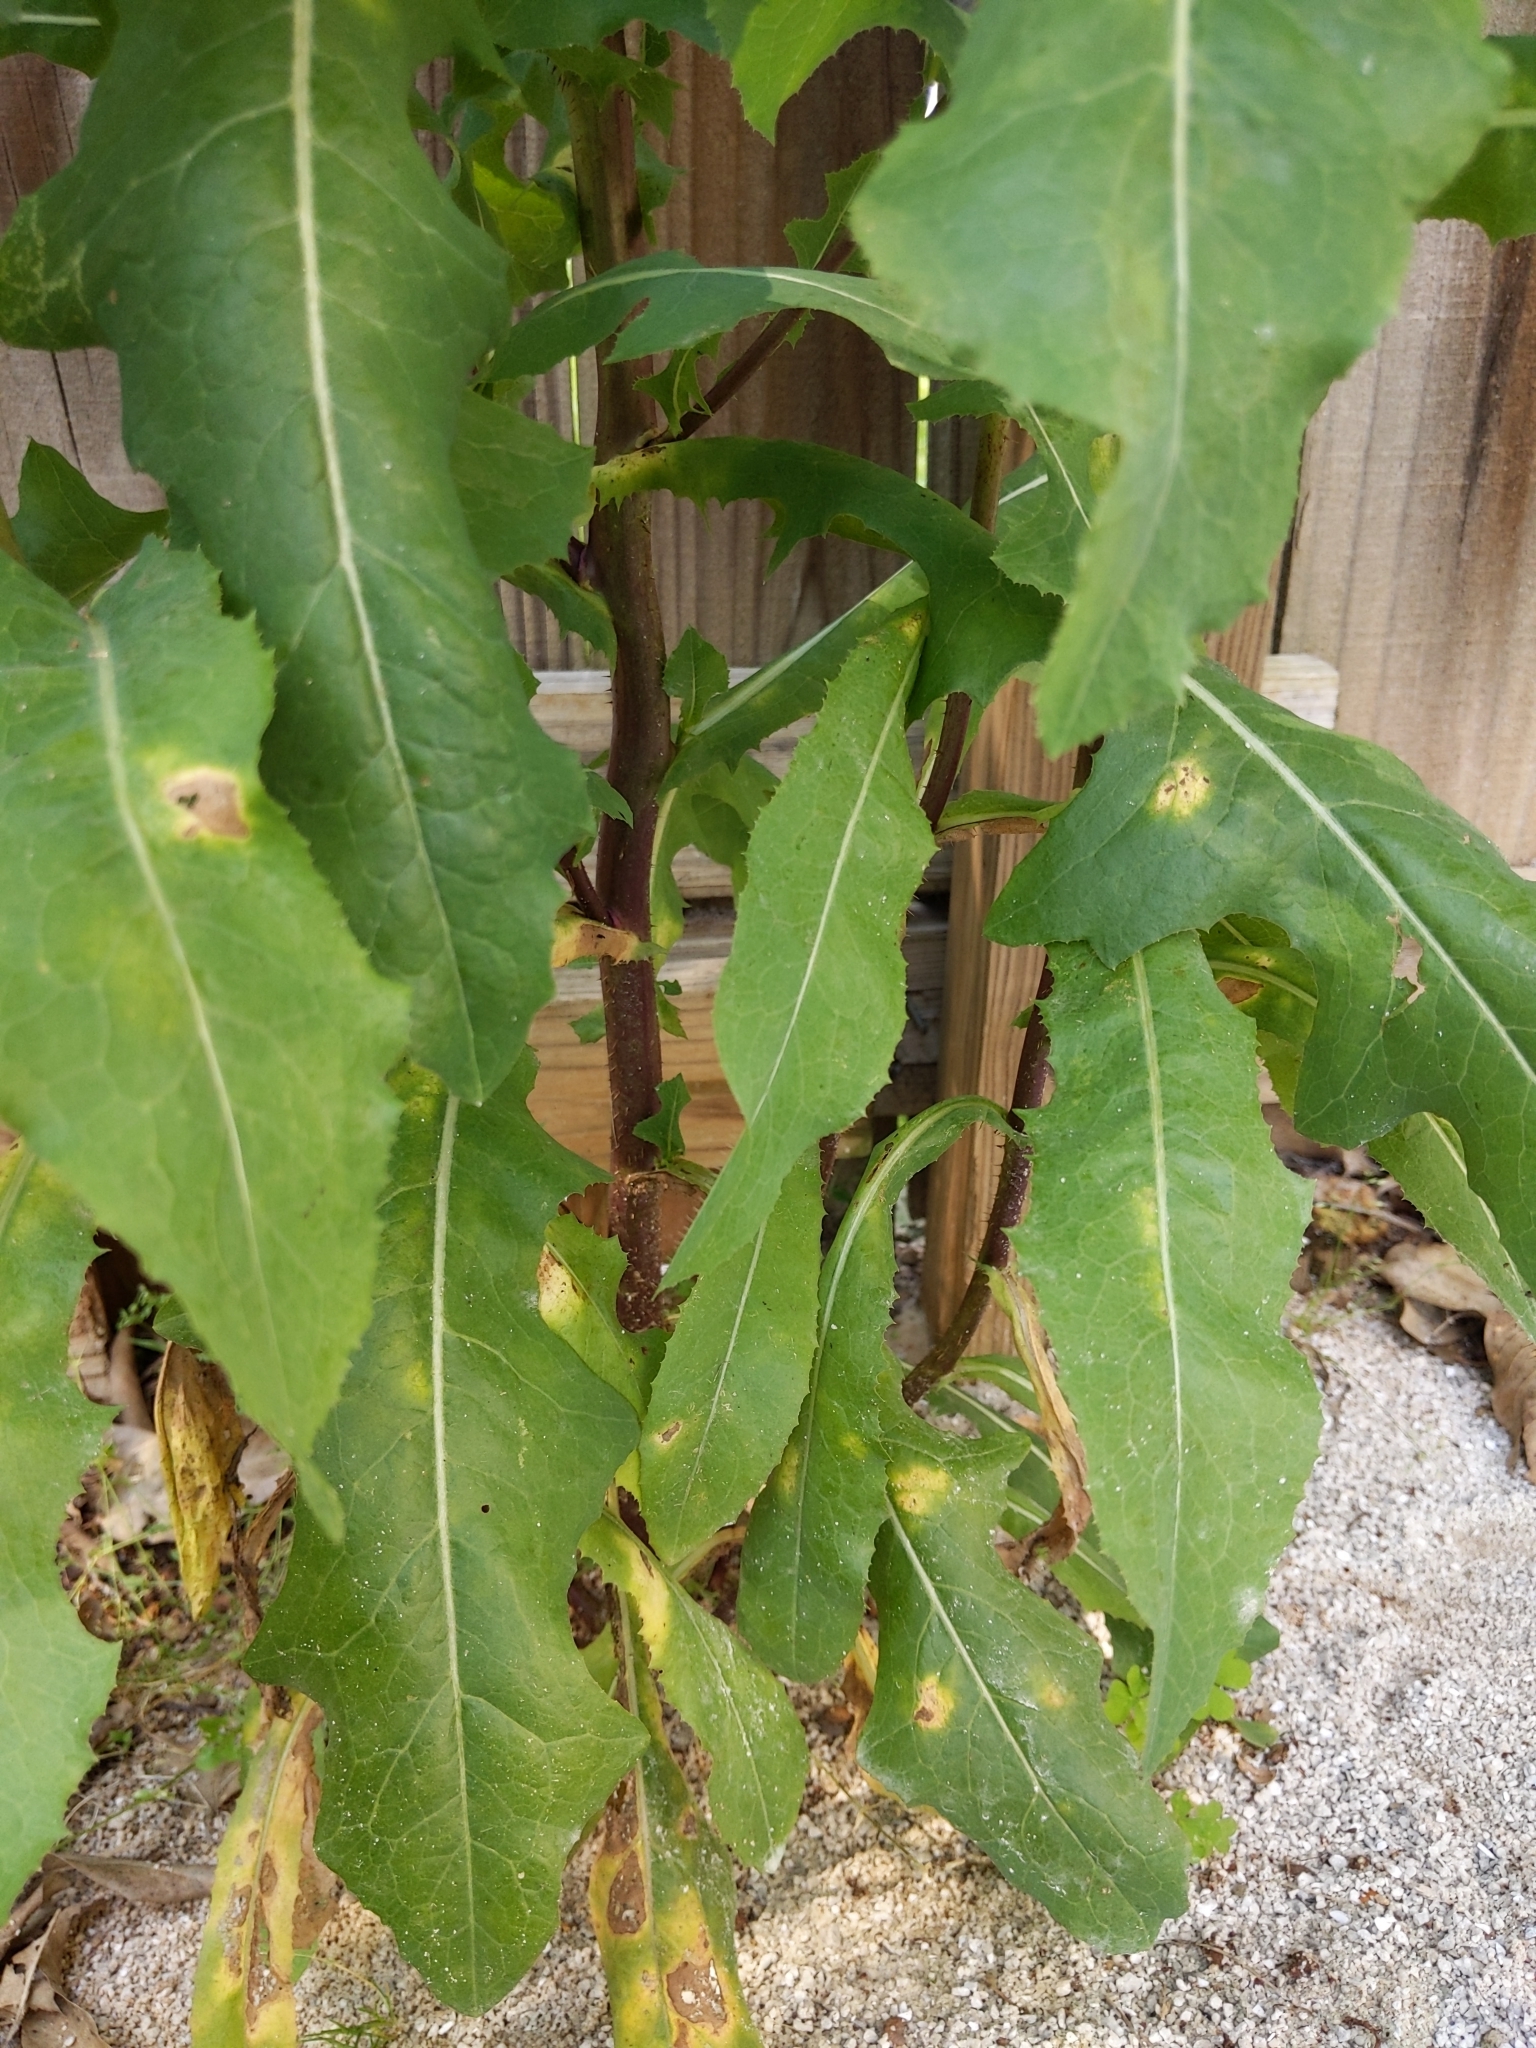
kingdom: Plantae
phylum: Tracheophyta
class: Magnoliopsida
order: Asterales
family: Asteraceae
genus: Lactuca
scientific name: Lactuca serriola
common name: Prickly lettuce
